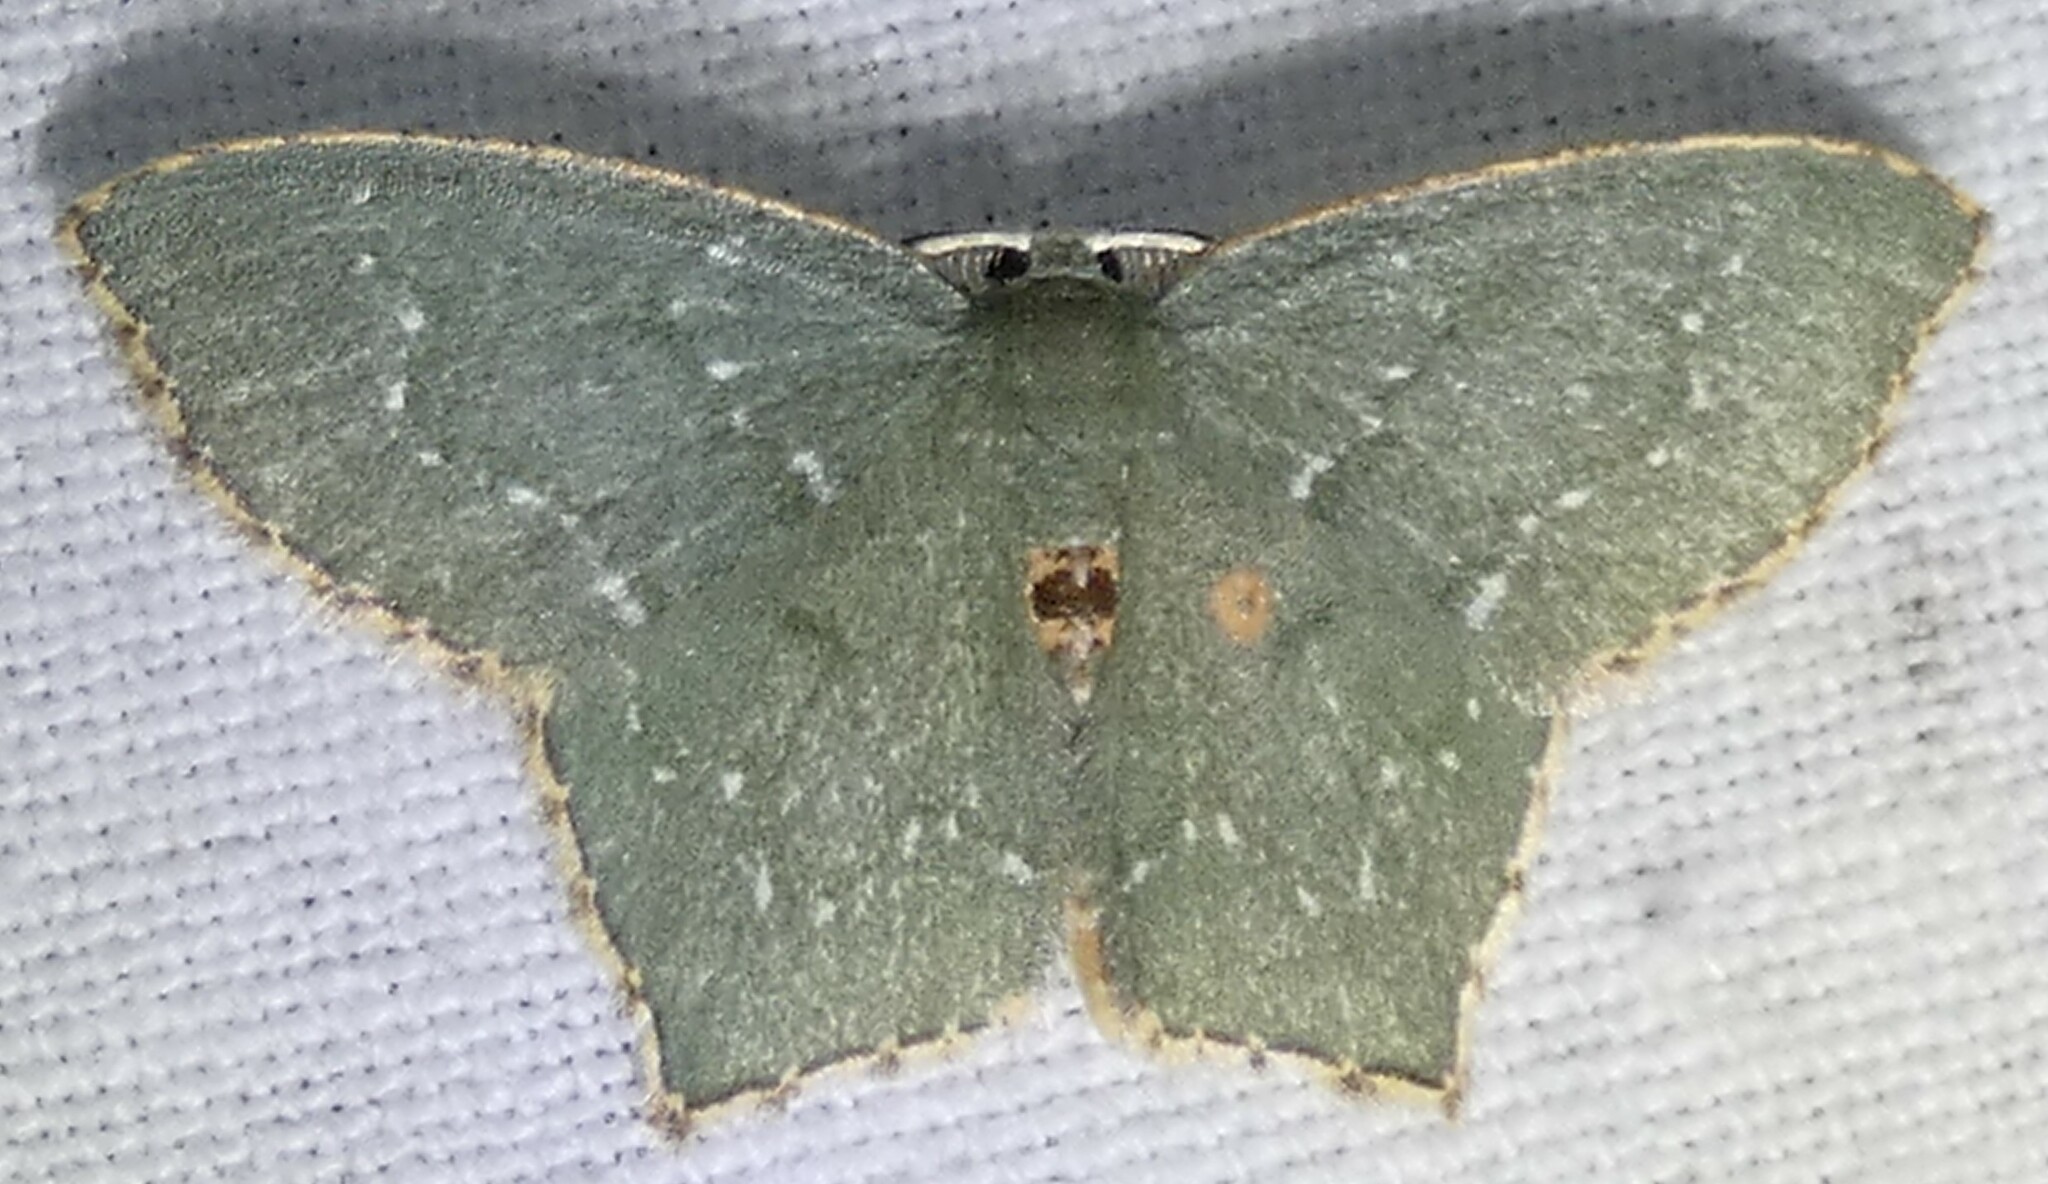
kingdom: Animalia
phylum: Arthropoda
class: Insecta
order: Lepidoptera
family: Geometridae
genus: Chloropteryx
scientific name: Chloropteryx tepperaria
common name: Angle winged emerald moth
